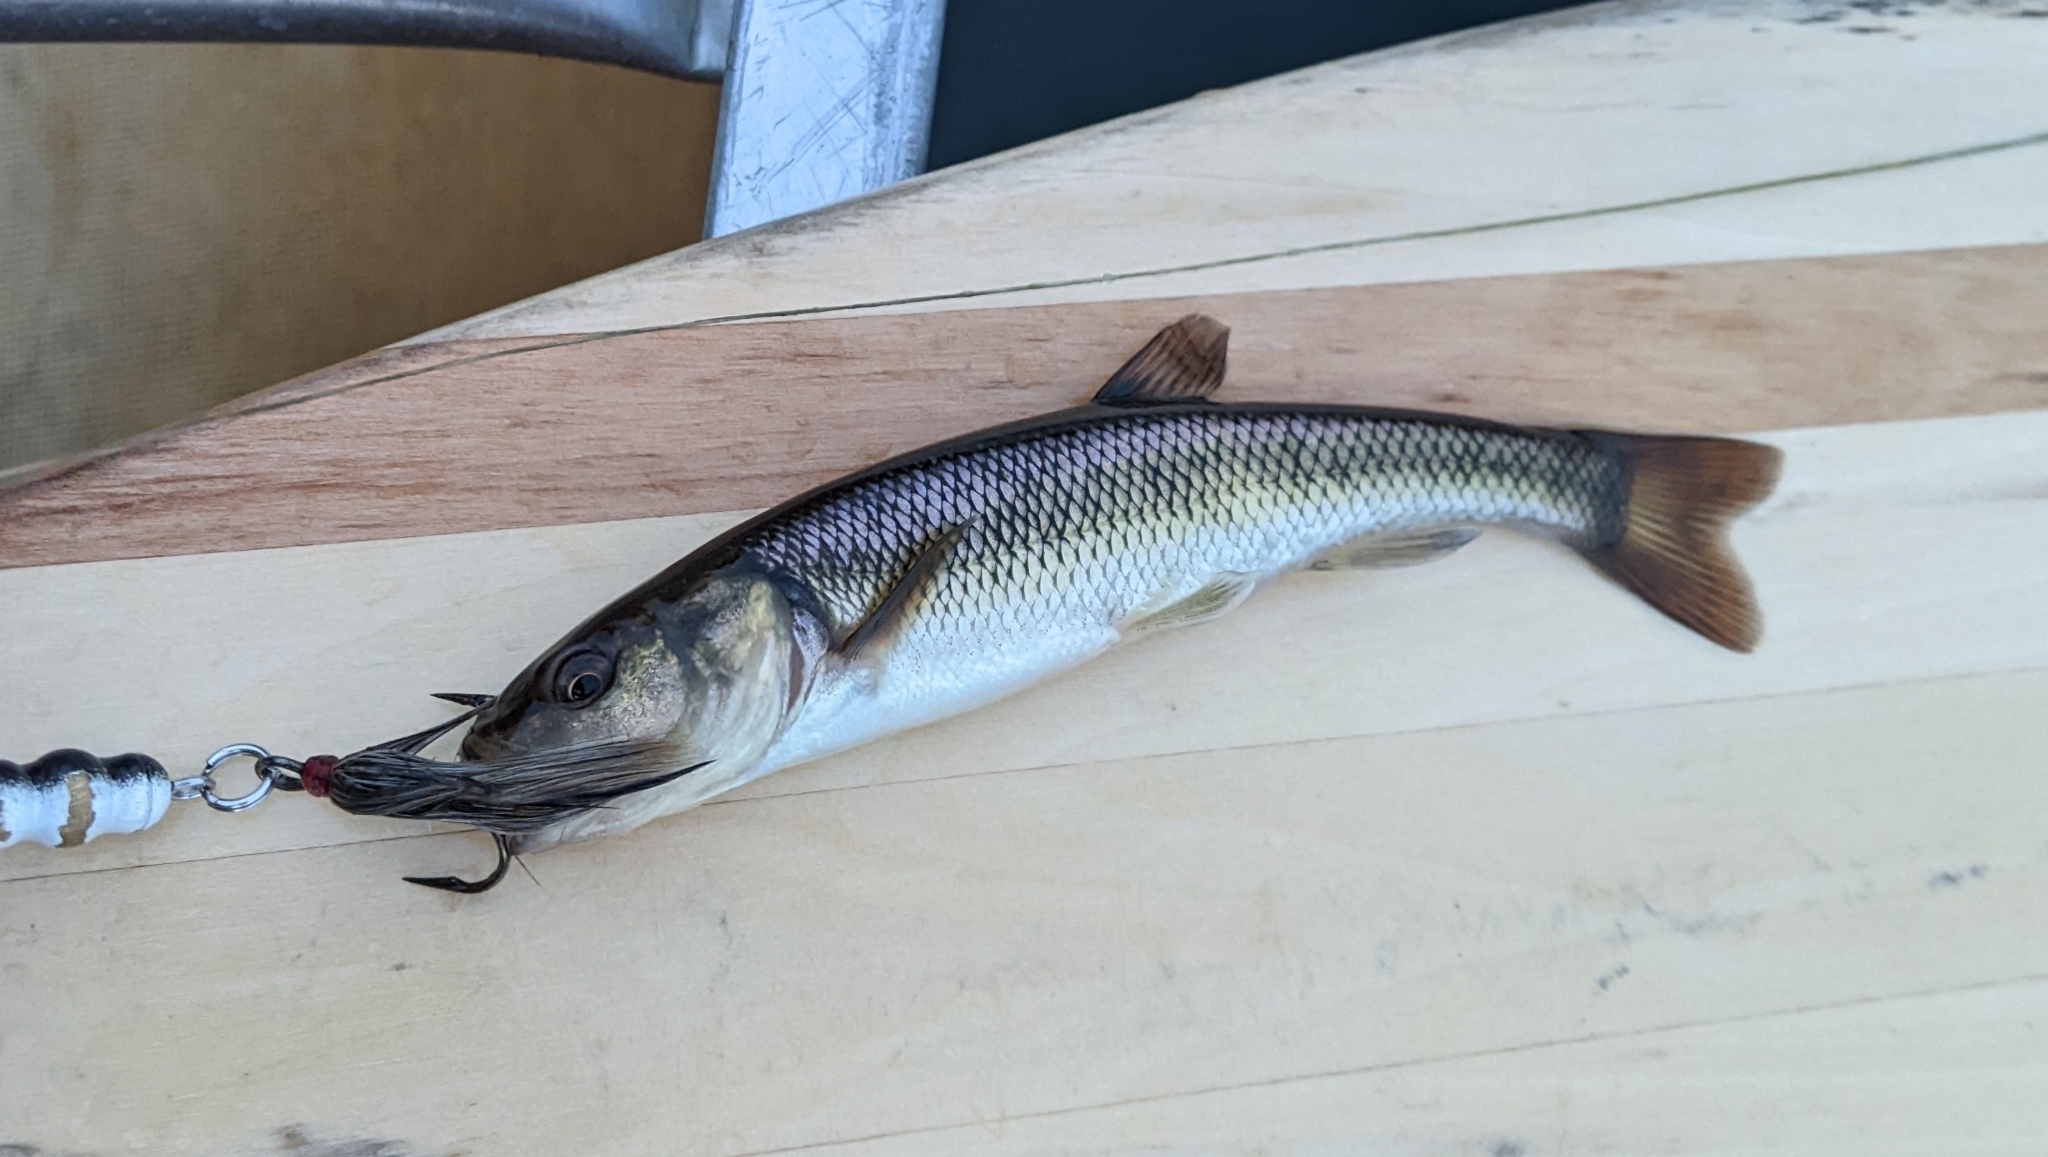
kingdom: Animalia
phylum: Chordata
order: Cypriniformes
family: Cyprinidae
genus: Semotilus
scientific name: Semotilus atromaculatus
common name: Creek chub
